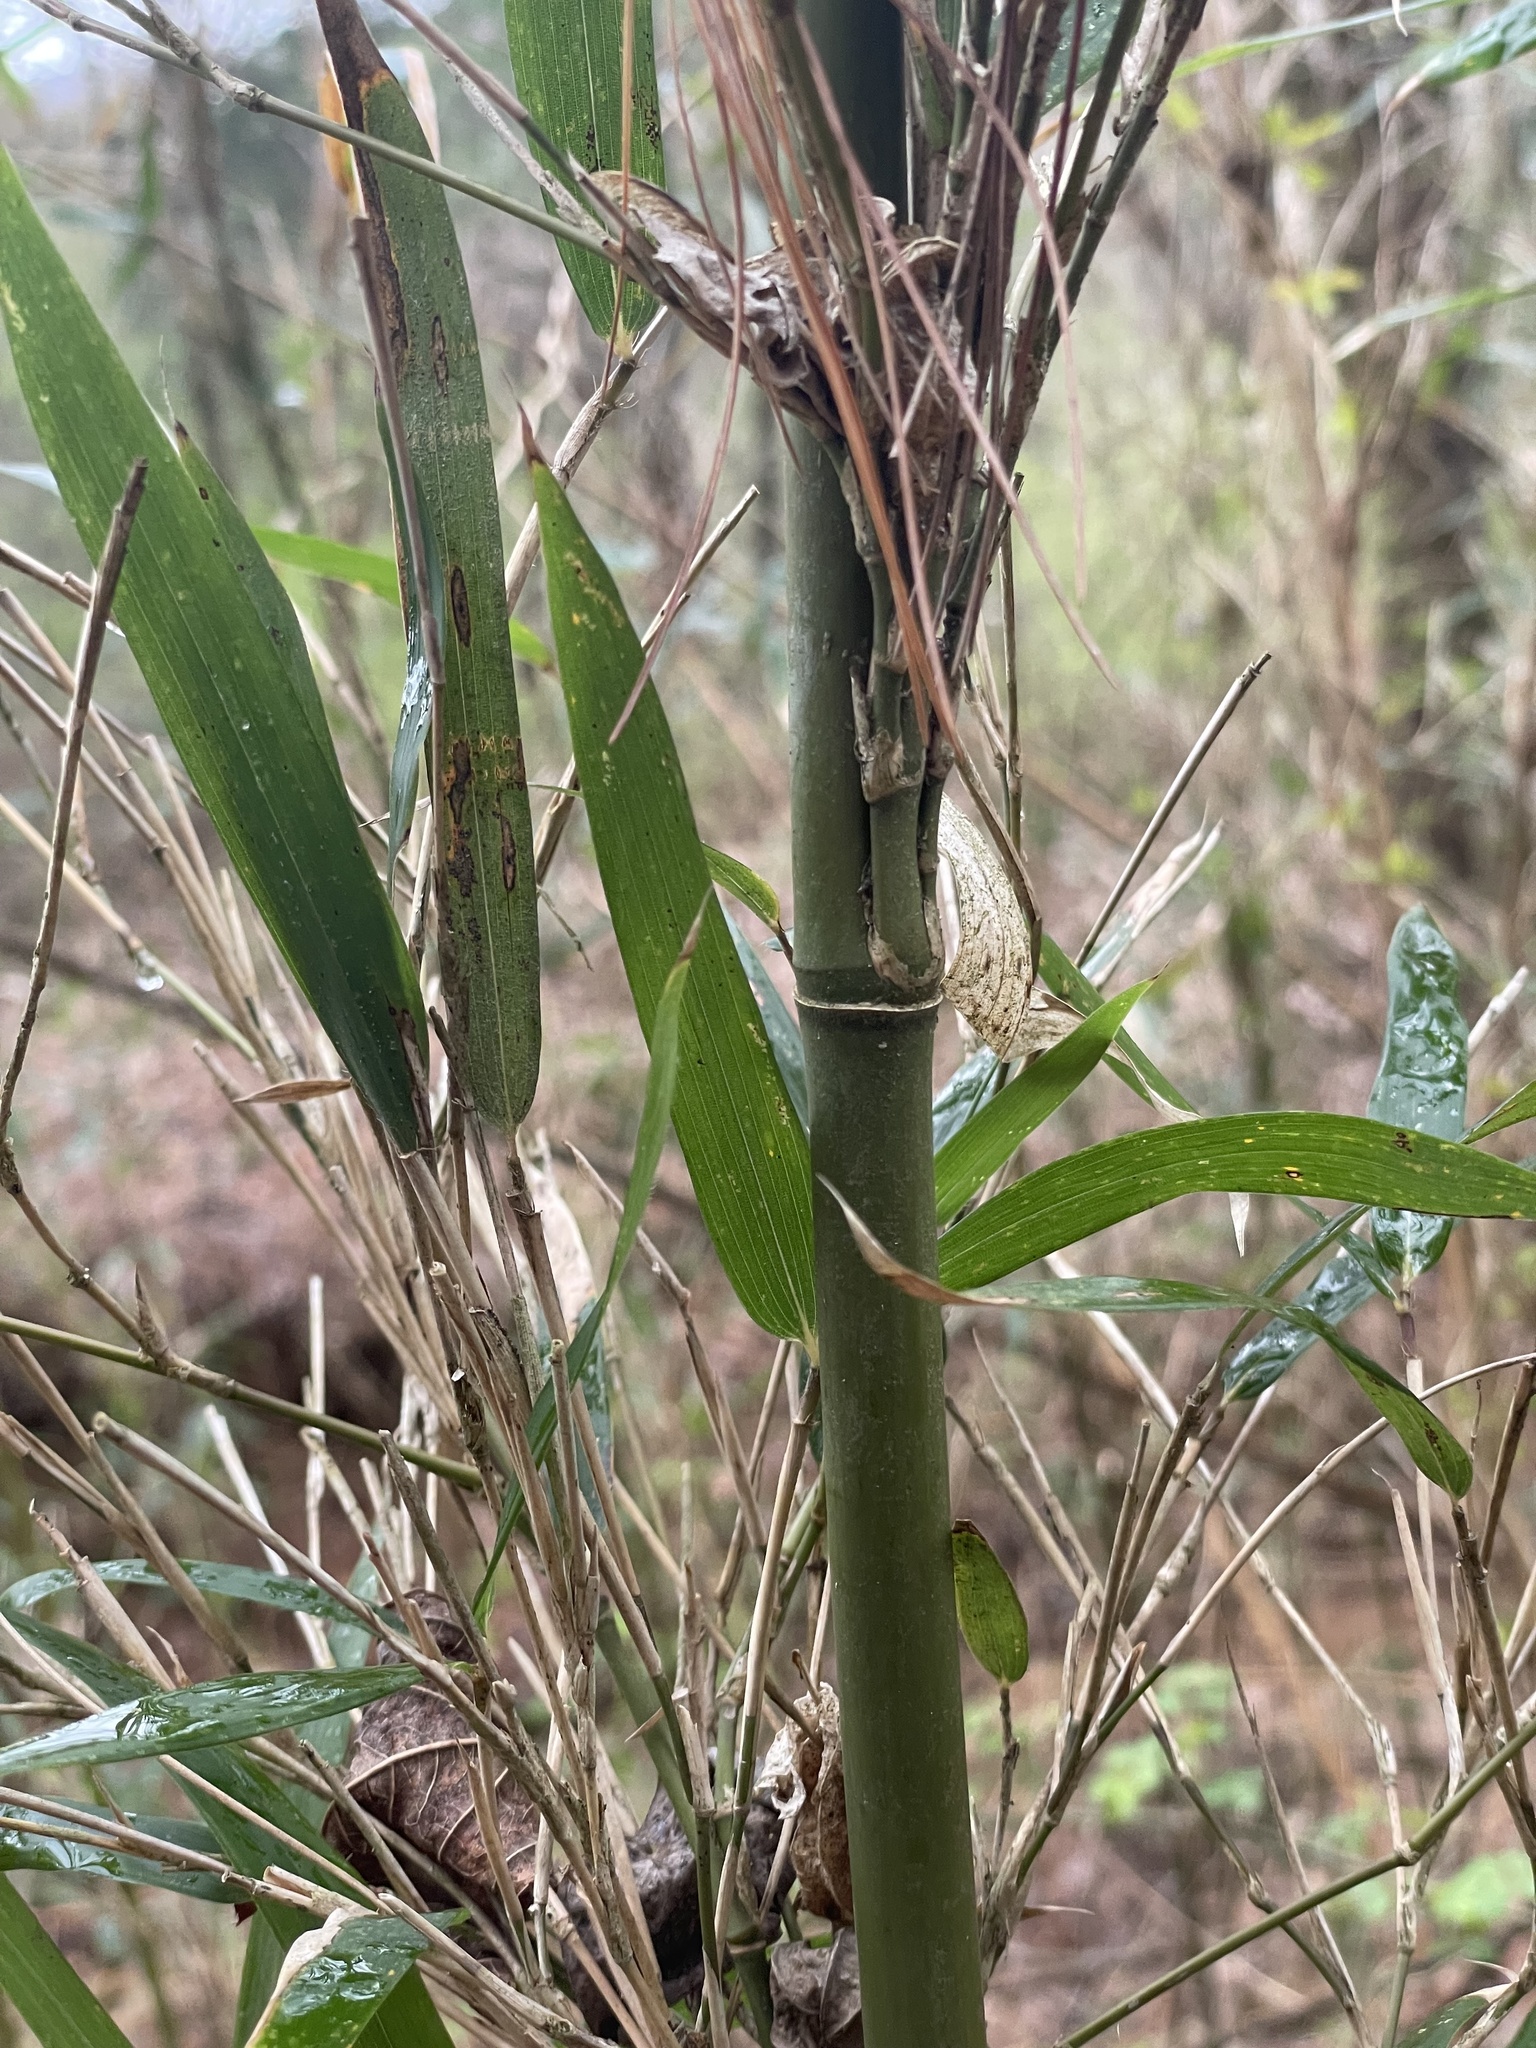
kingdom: Plantae
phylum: Tracheophyta
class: Liliopsida
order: Poales
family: Poaceae
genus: Arundinaria
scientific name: Arundinaria gigantea
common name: Giant cane
